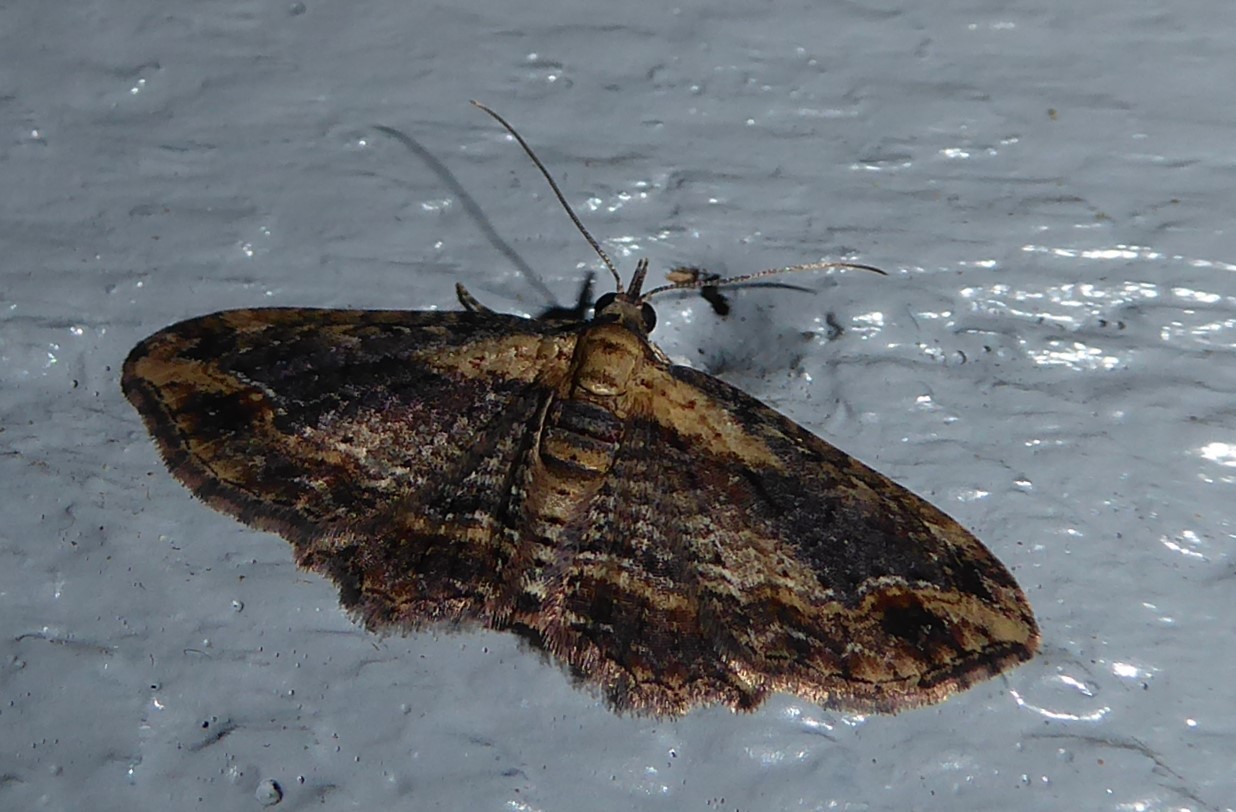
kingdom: Animalia
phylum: Arthropoda
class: Insecta
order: Lepidoptera
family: Geometridae
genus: Chloroclystis
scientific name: Chloroclystis filata
